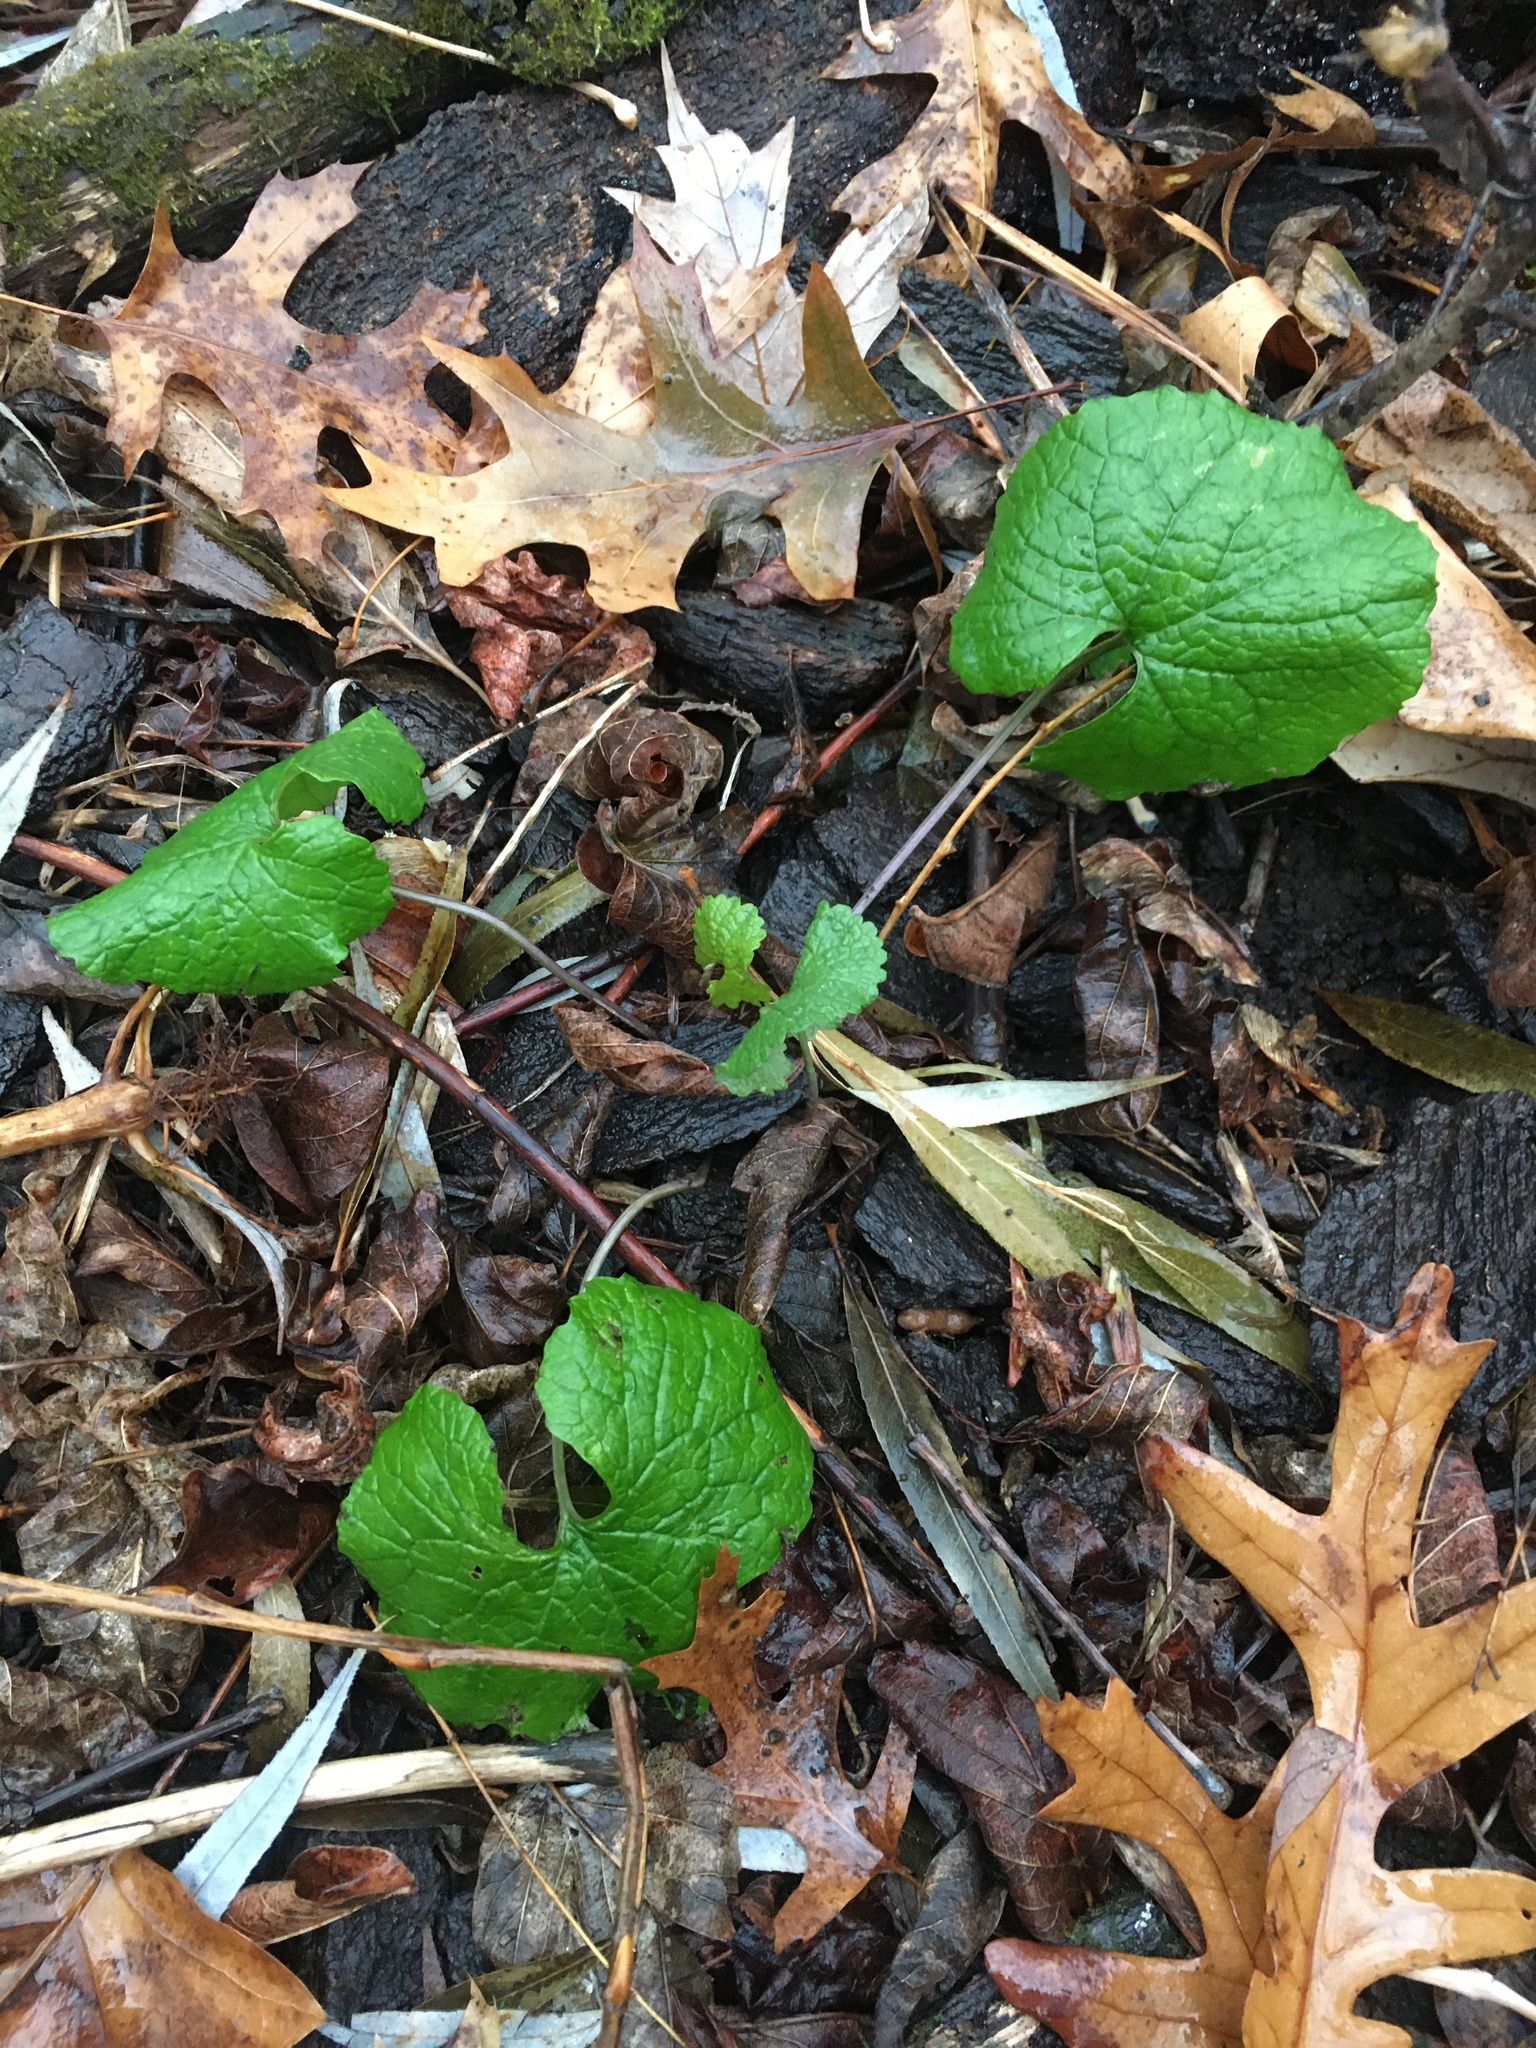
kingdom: Plantae
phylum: Tracheophyta
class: Magnoliopsida
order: Brassicales
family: Brassicaceae
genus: Alliaria
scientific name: Alliaria petiolata
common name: Garlic mustard
